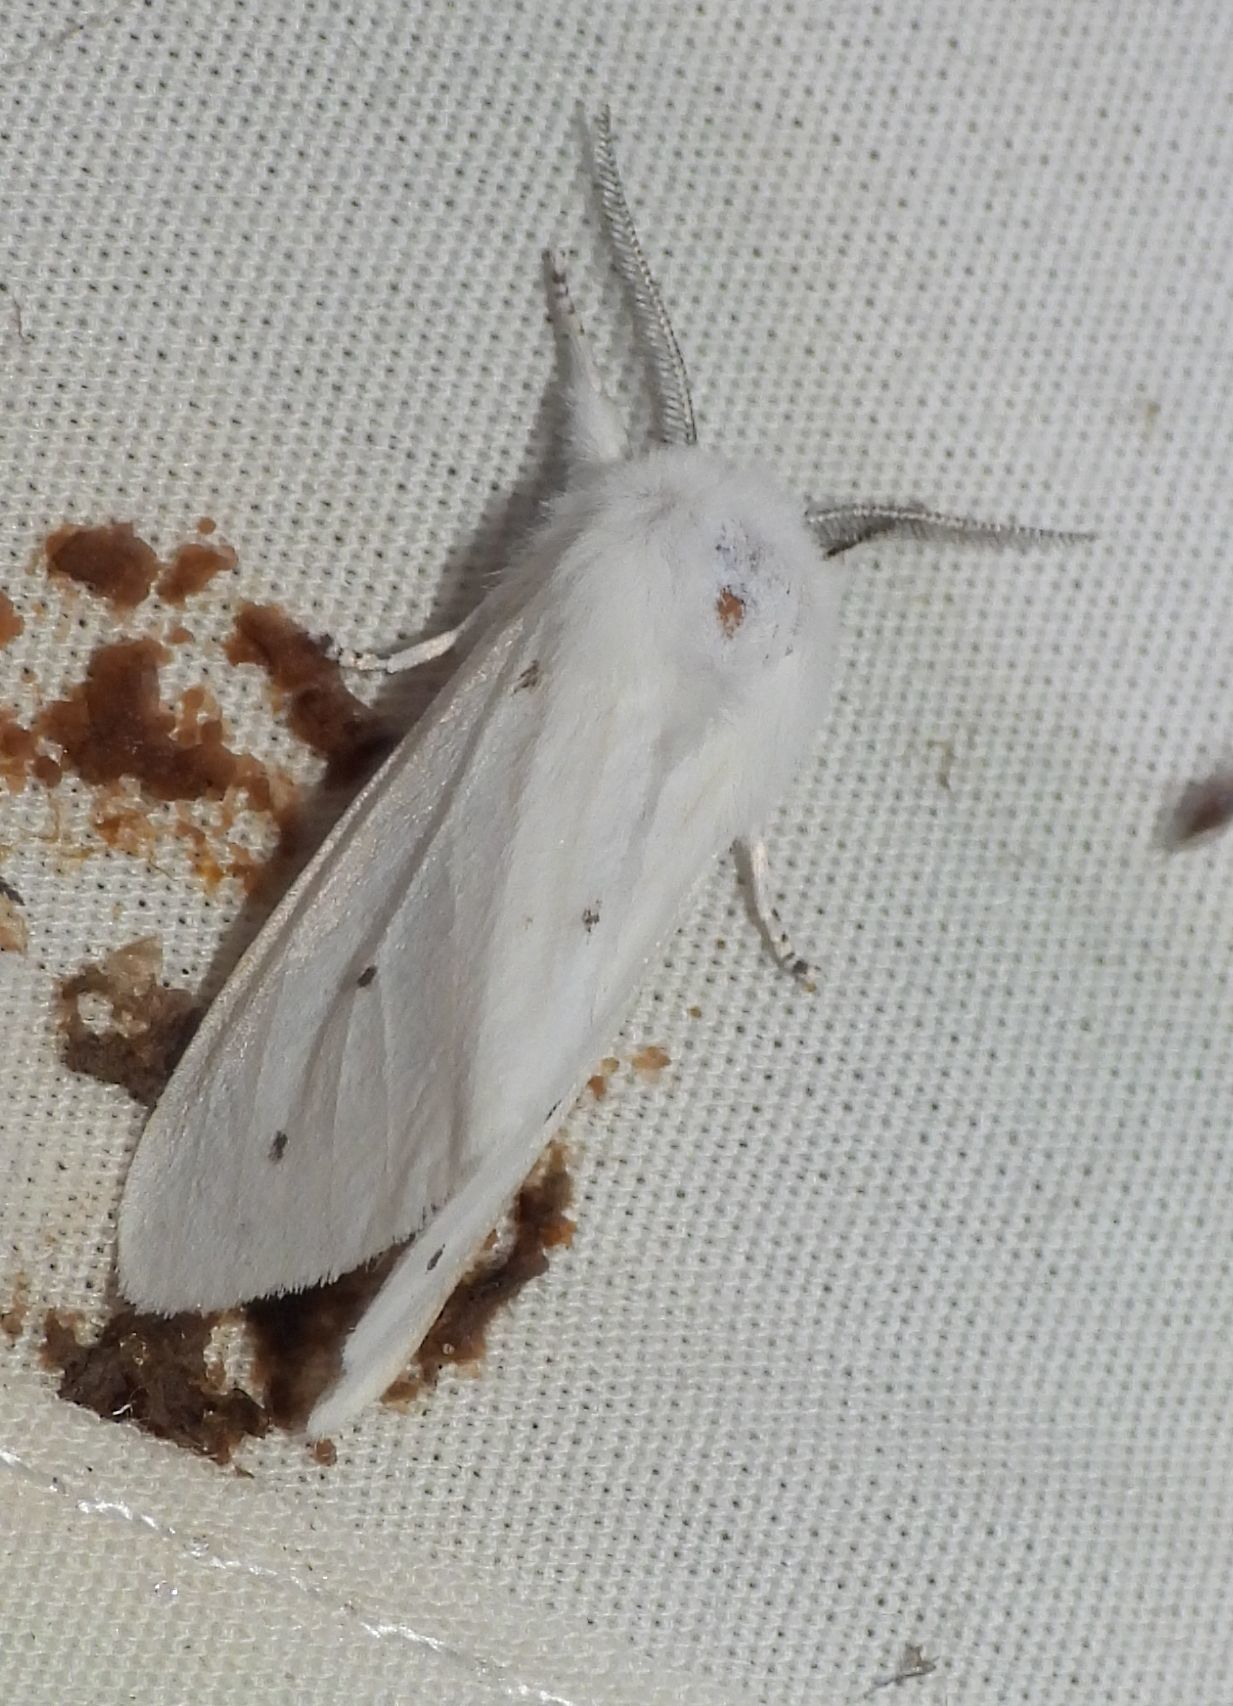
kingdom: Animalia
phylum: Arthropoda
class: Insecta
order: Lepidoptera
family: Erebidae
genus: Spilosoma
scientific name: Spilosoma virginica
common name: Virginia tiger moth
